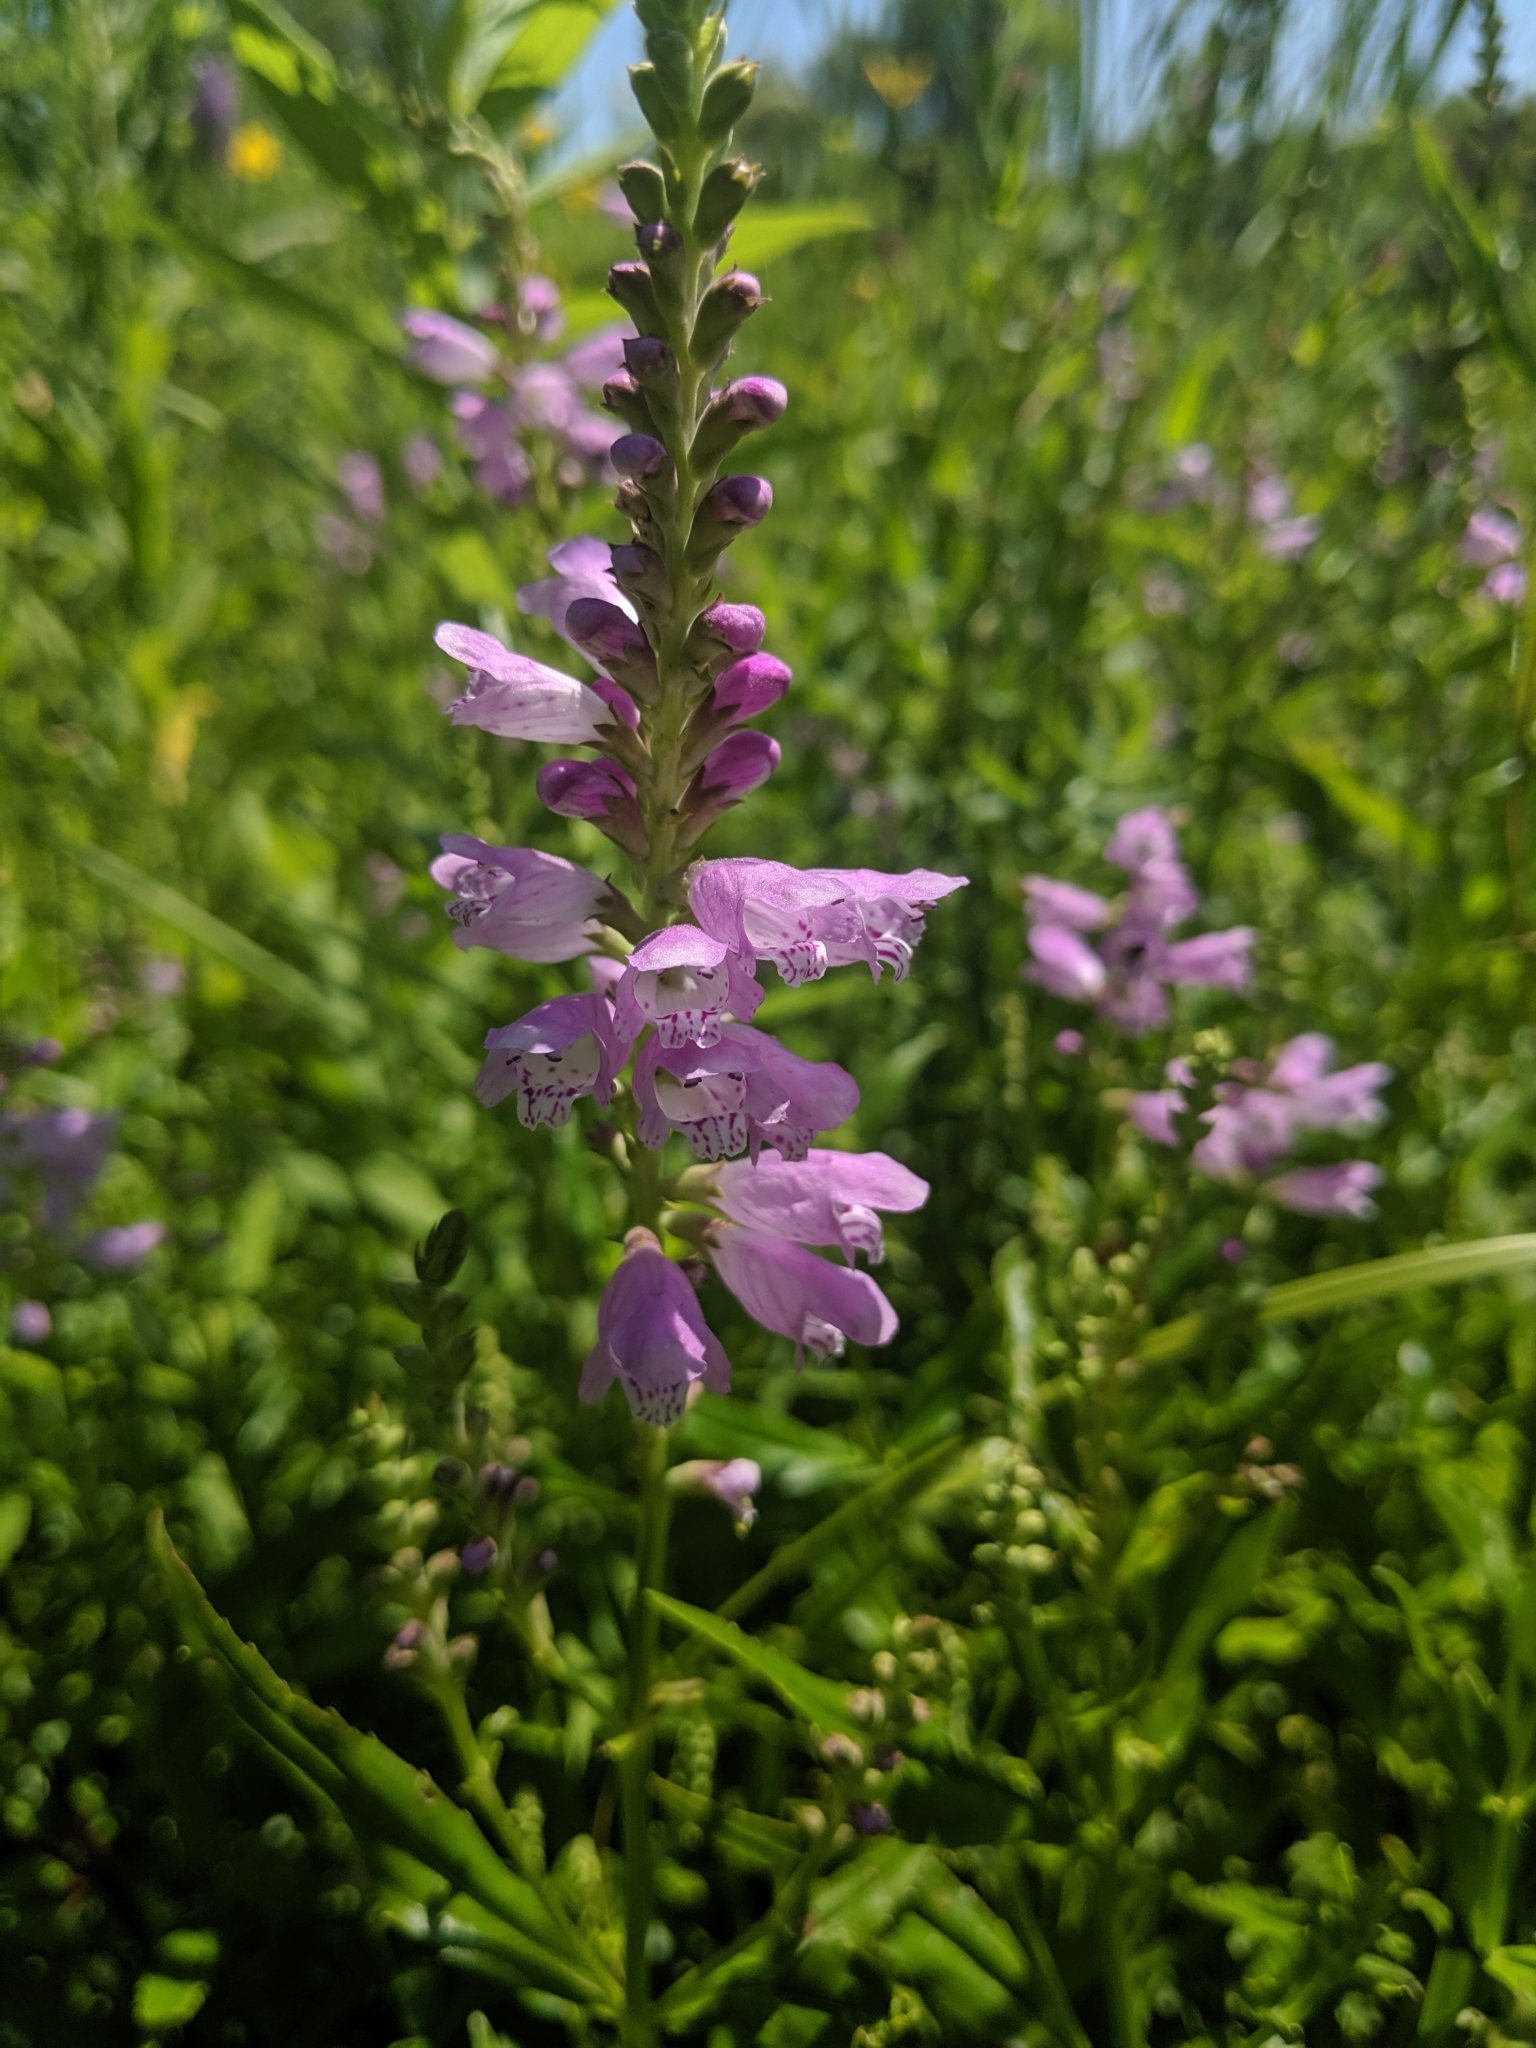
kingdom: Plantae
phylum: Tracheophyta
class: Magnoliopsida
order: Lamiales
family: Lamiaceae
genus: Physostegia
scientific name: Physostegia virginiana
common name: Obedient-plant
